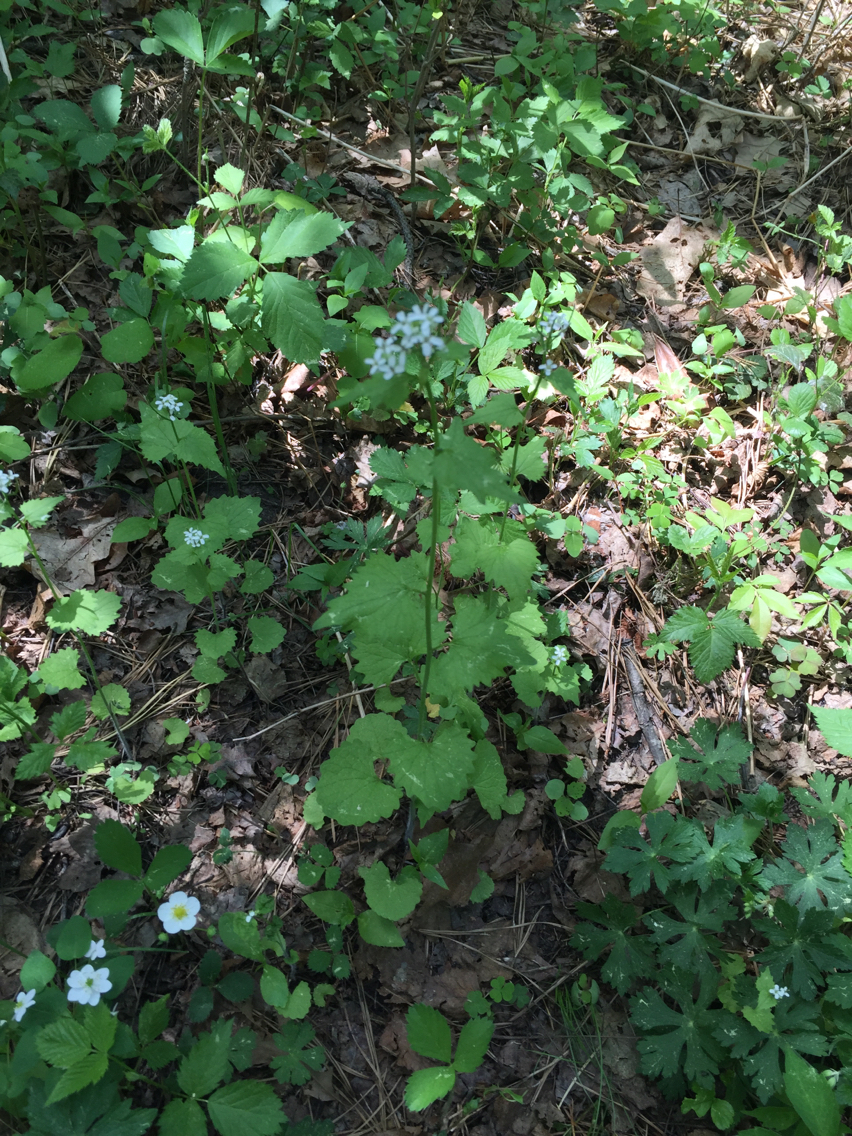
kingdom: Plantae
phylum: Tracheophyta
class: Magnoliopsida
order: Brassicales
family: Brassicaceae
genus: Alliaria
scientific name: Alliaria petiolata
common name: Garlic mustard
